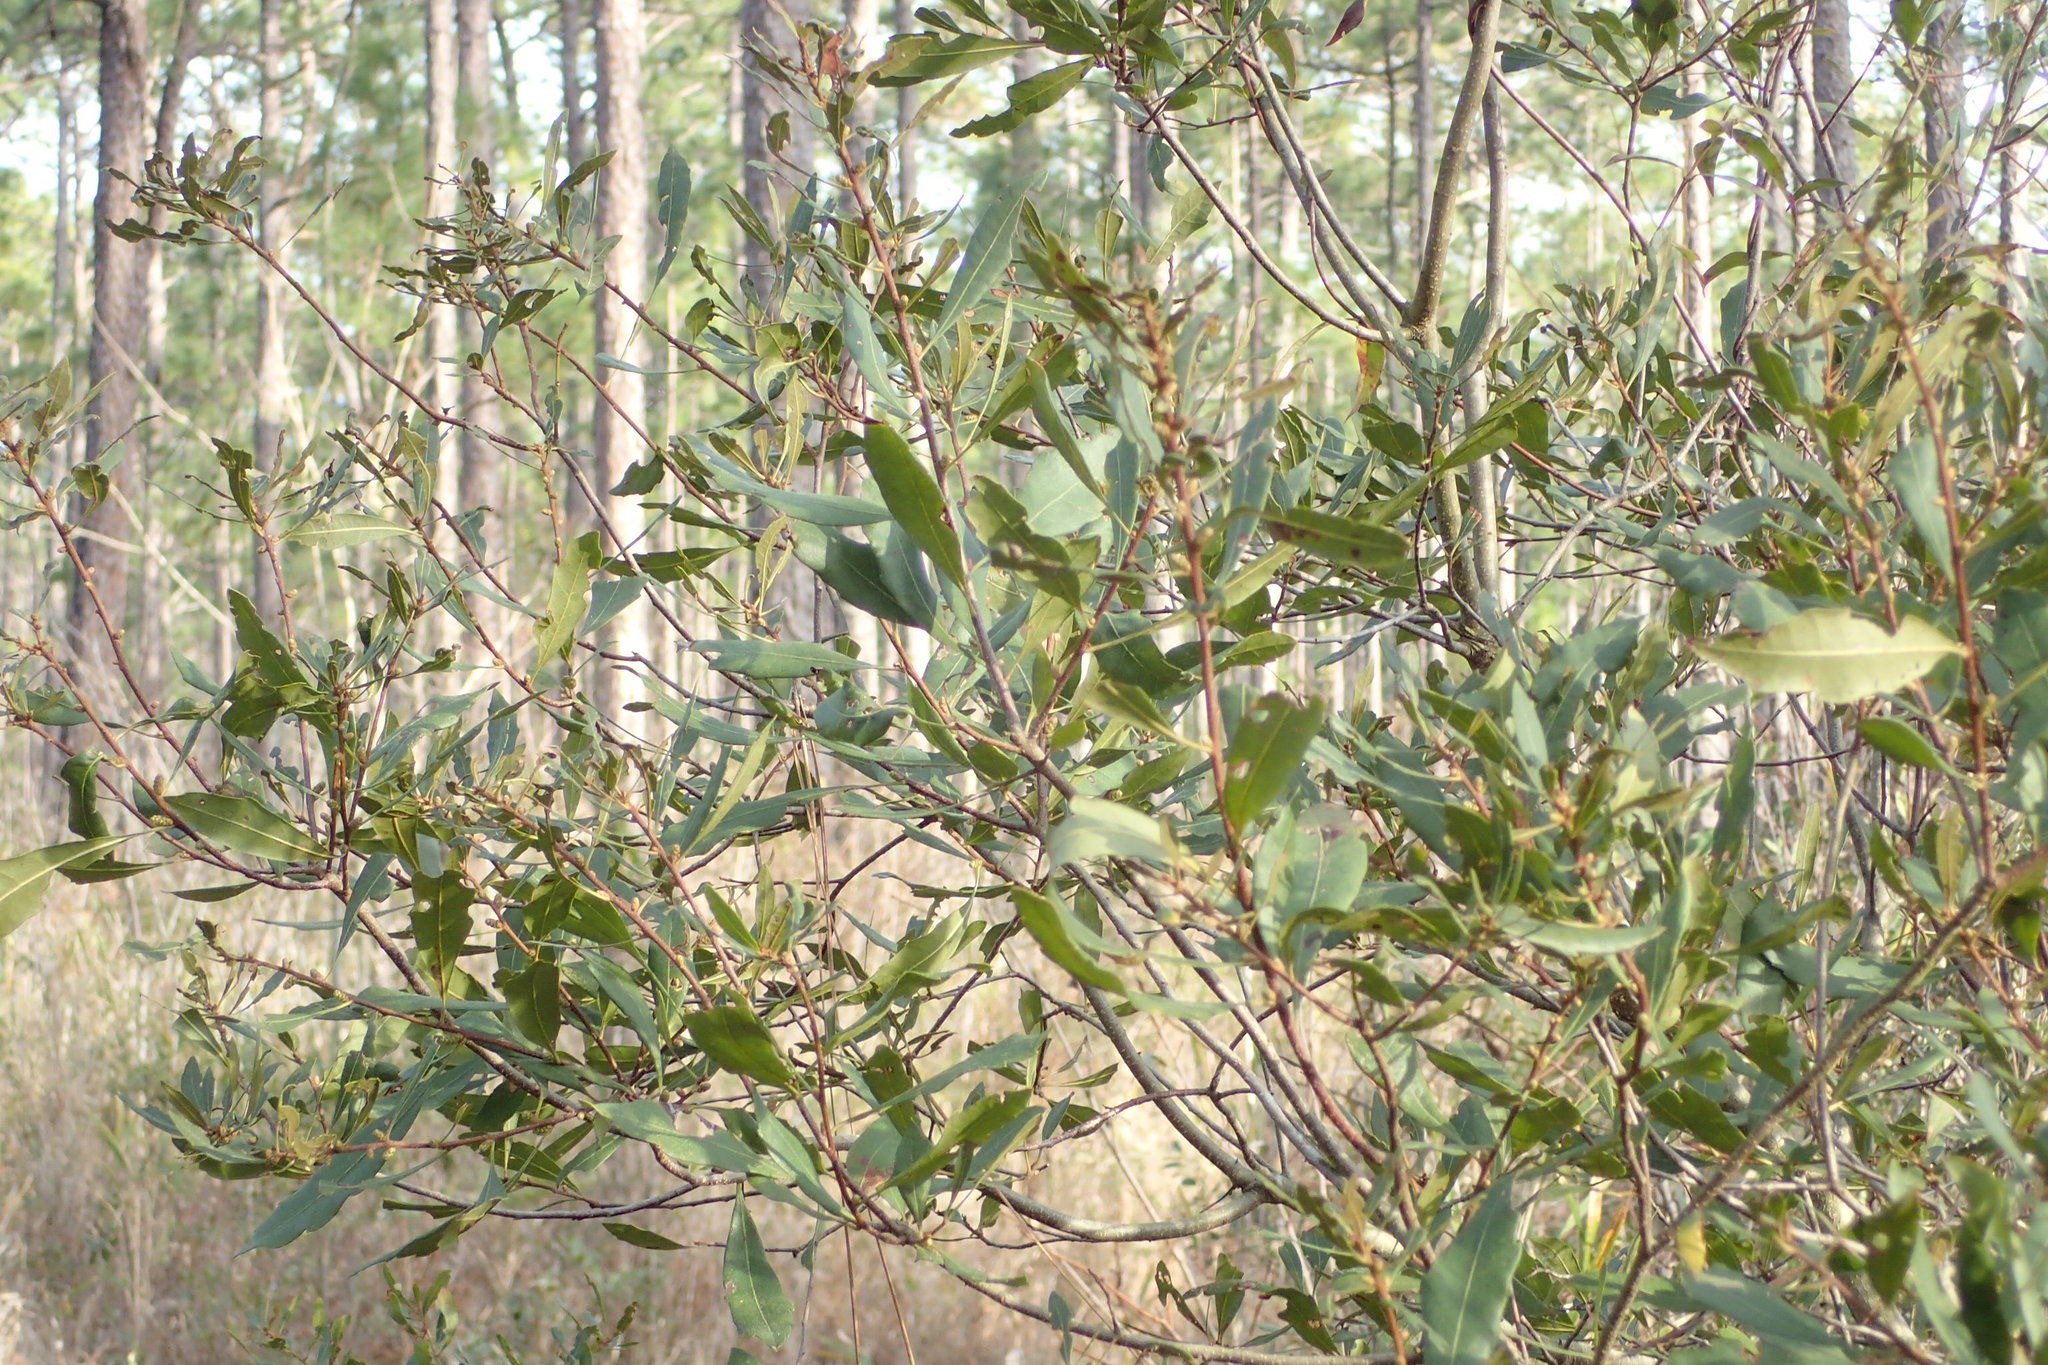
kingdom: Plantae
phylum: Tracheophyta
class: Magnoliopsida
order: Fagales
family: Myricaceae
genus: Morella
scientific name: Morella cerifera
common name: Wax myrtle
